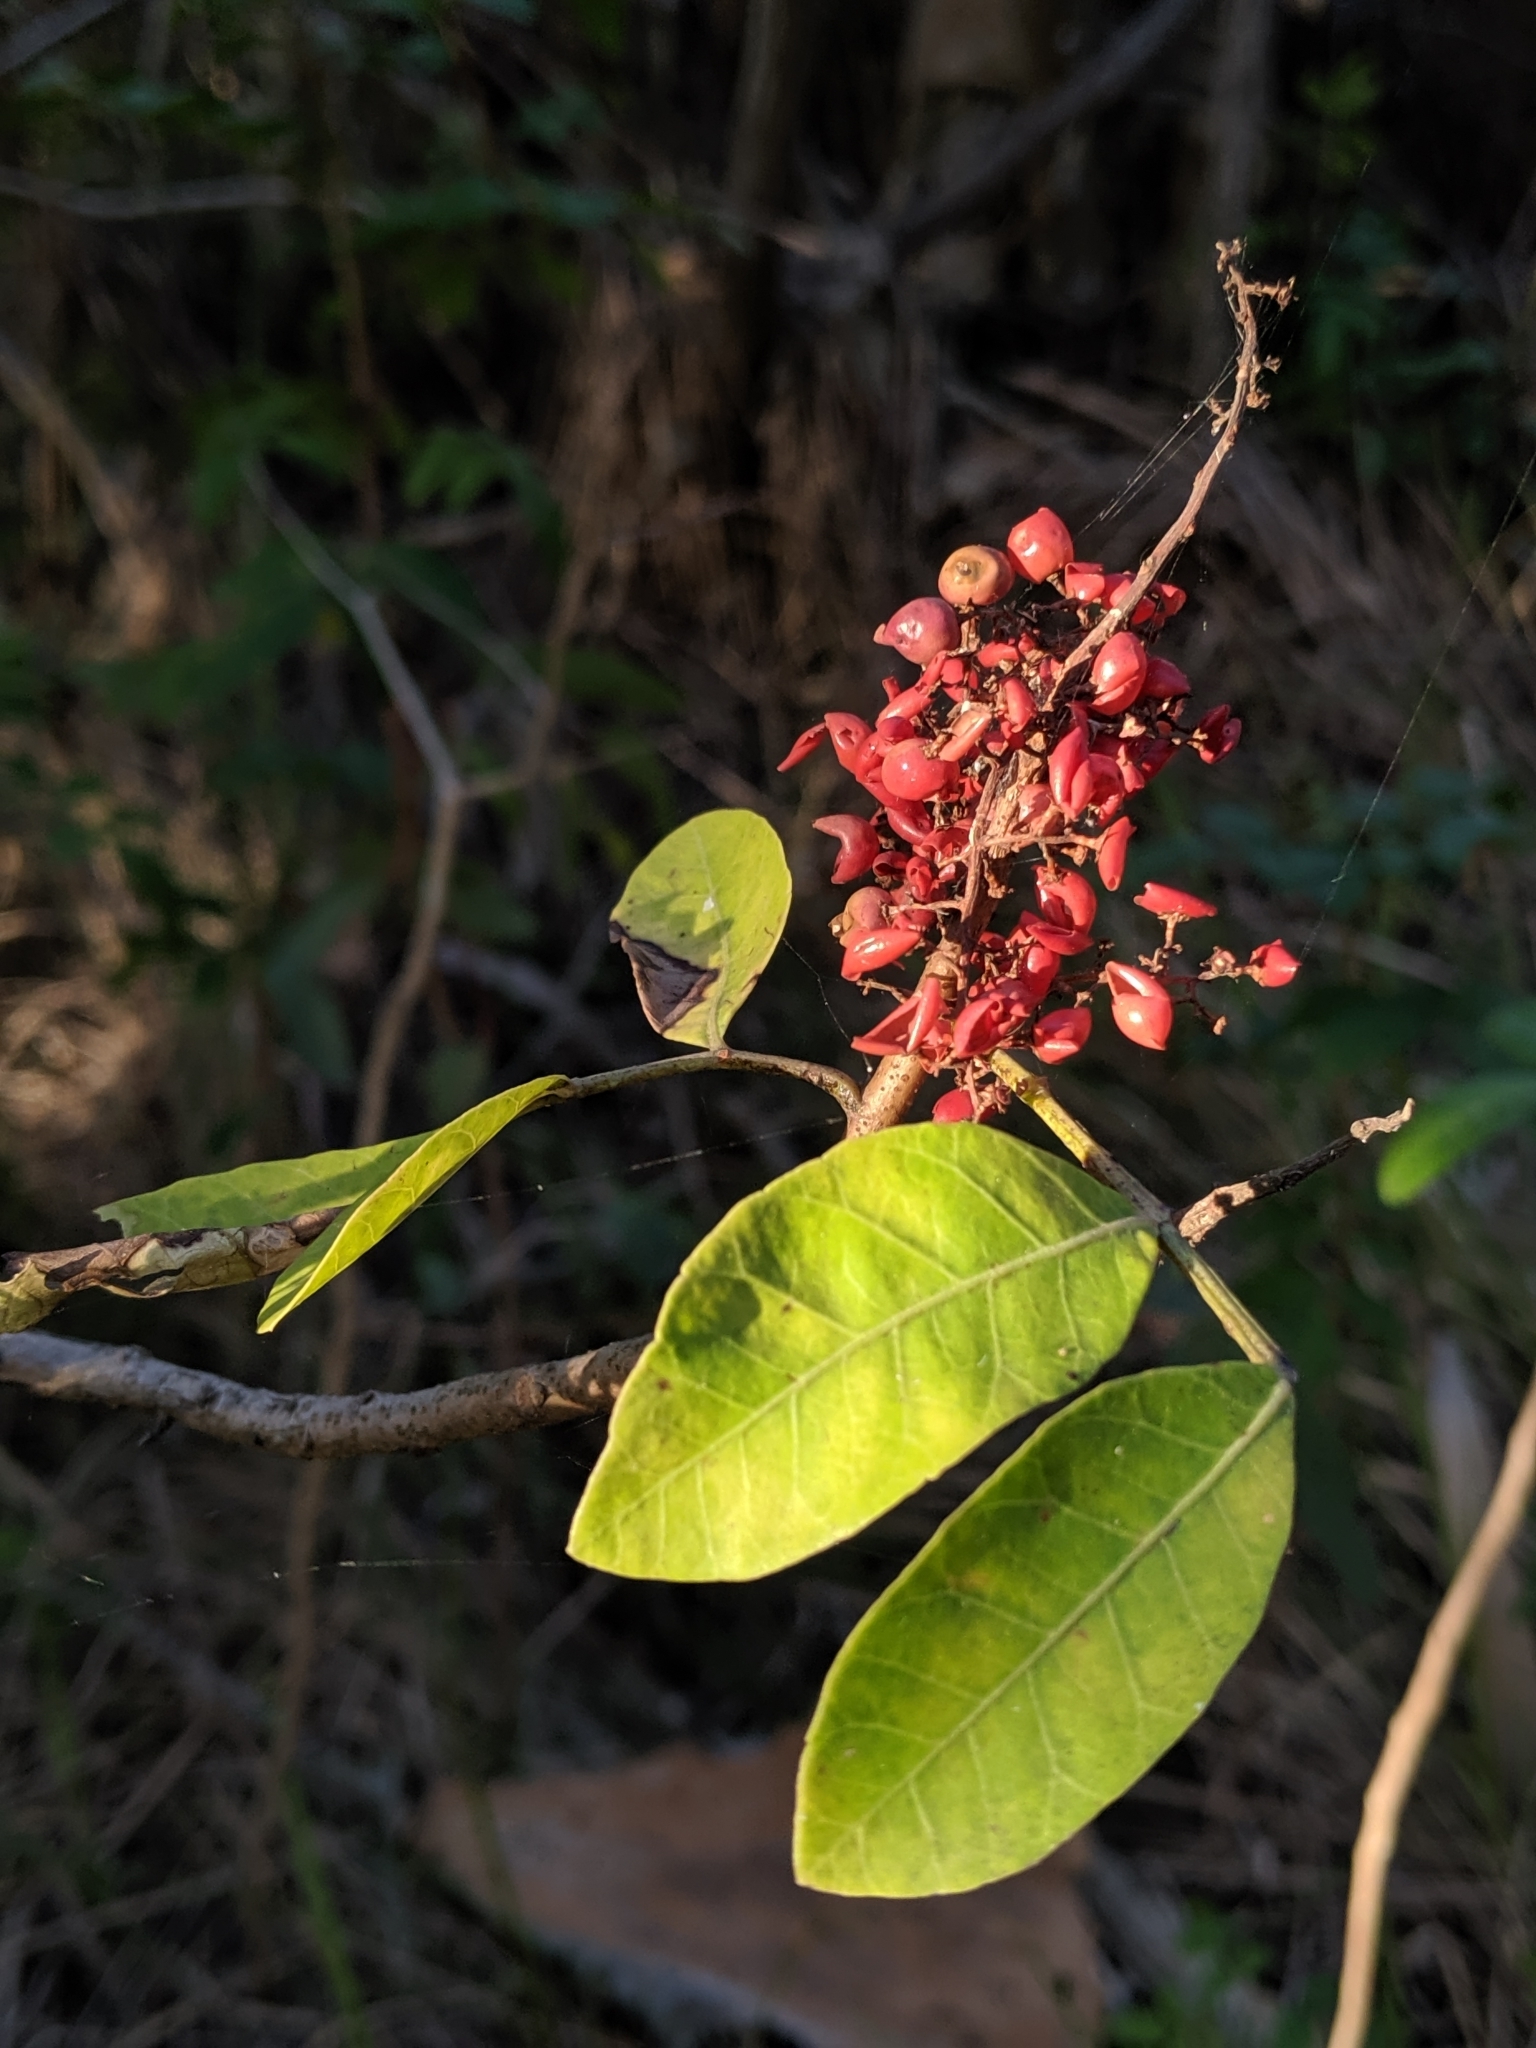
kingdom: Plantae
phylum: Tracheophyta
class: Magnoliopsida
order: Sapindales
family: Anacardiaceae
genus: Schinus
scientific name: Schinus terebinthifolia
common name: Brazilian peppertree
